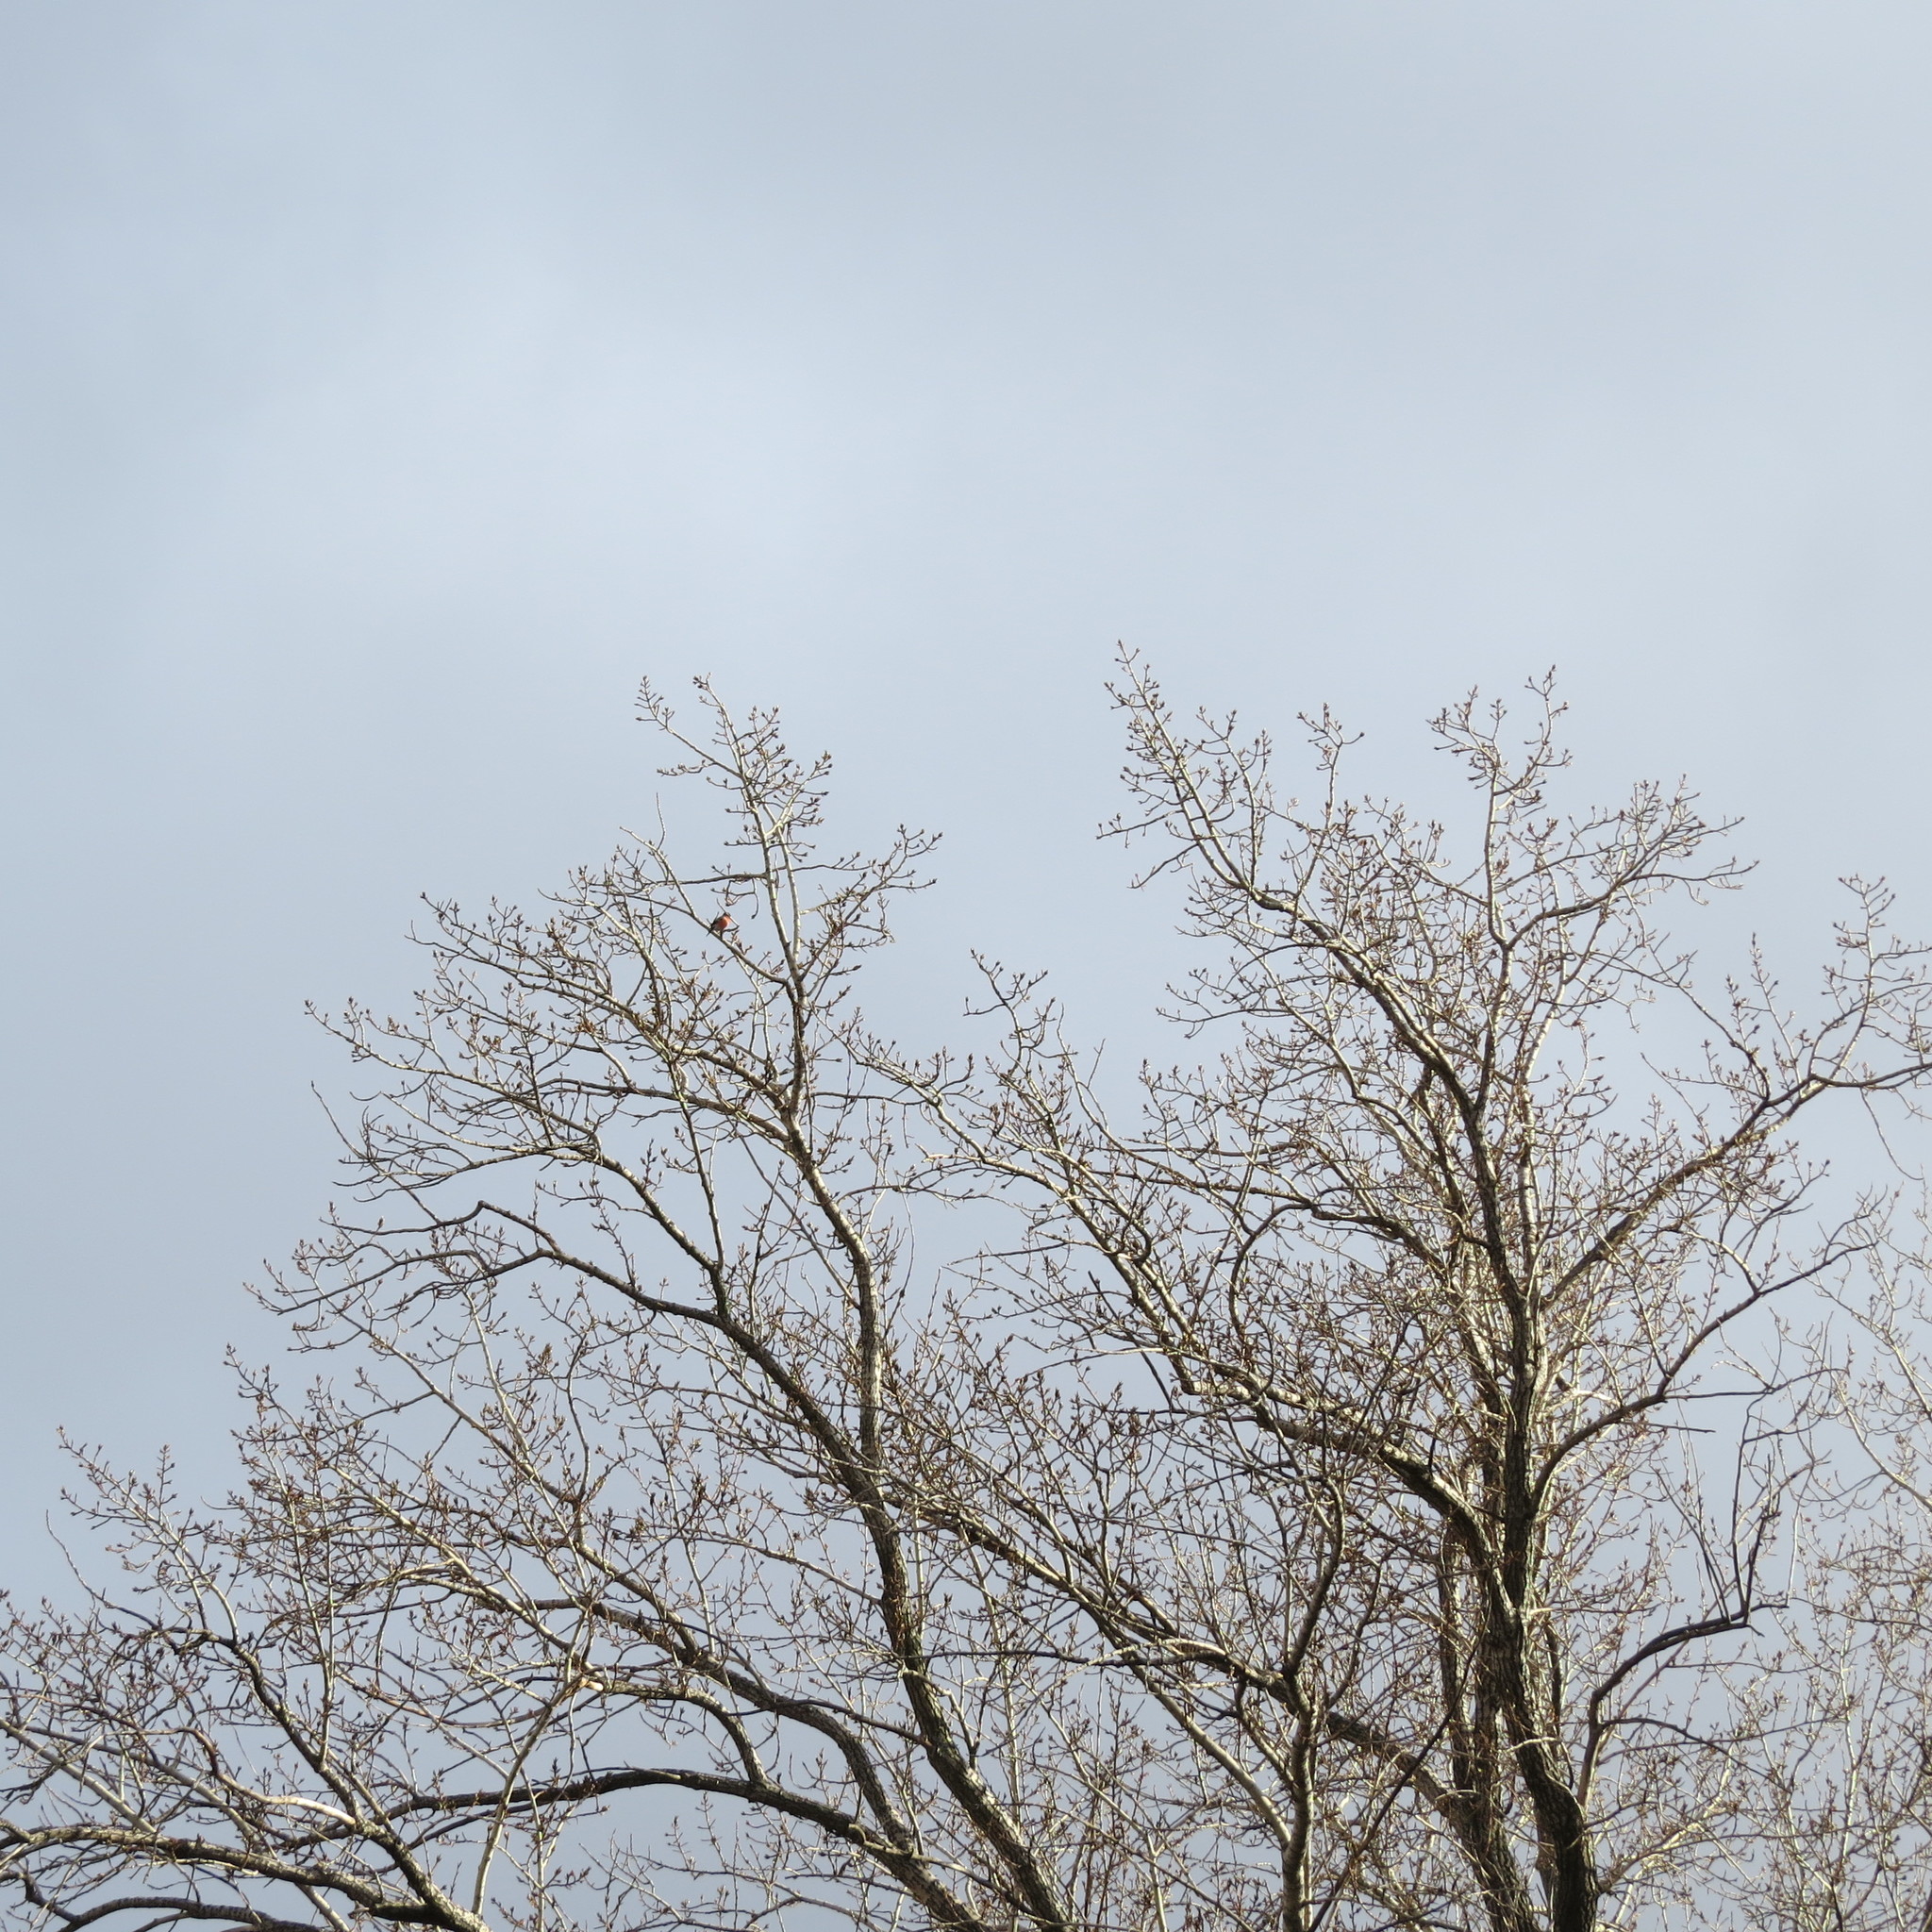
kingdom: Animalia
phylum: Chordata
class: Aves
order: Passeriformes
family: Fringillidae
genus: Pyrrhula
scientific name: Pyrrhula pyrrhula
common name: Eurasian bullfinch
